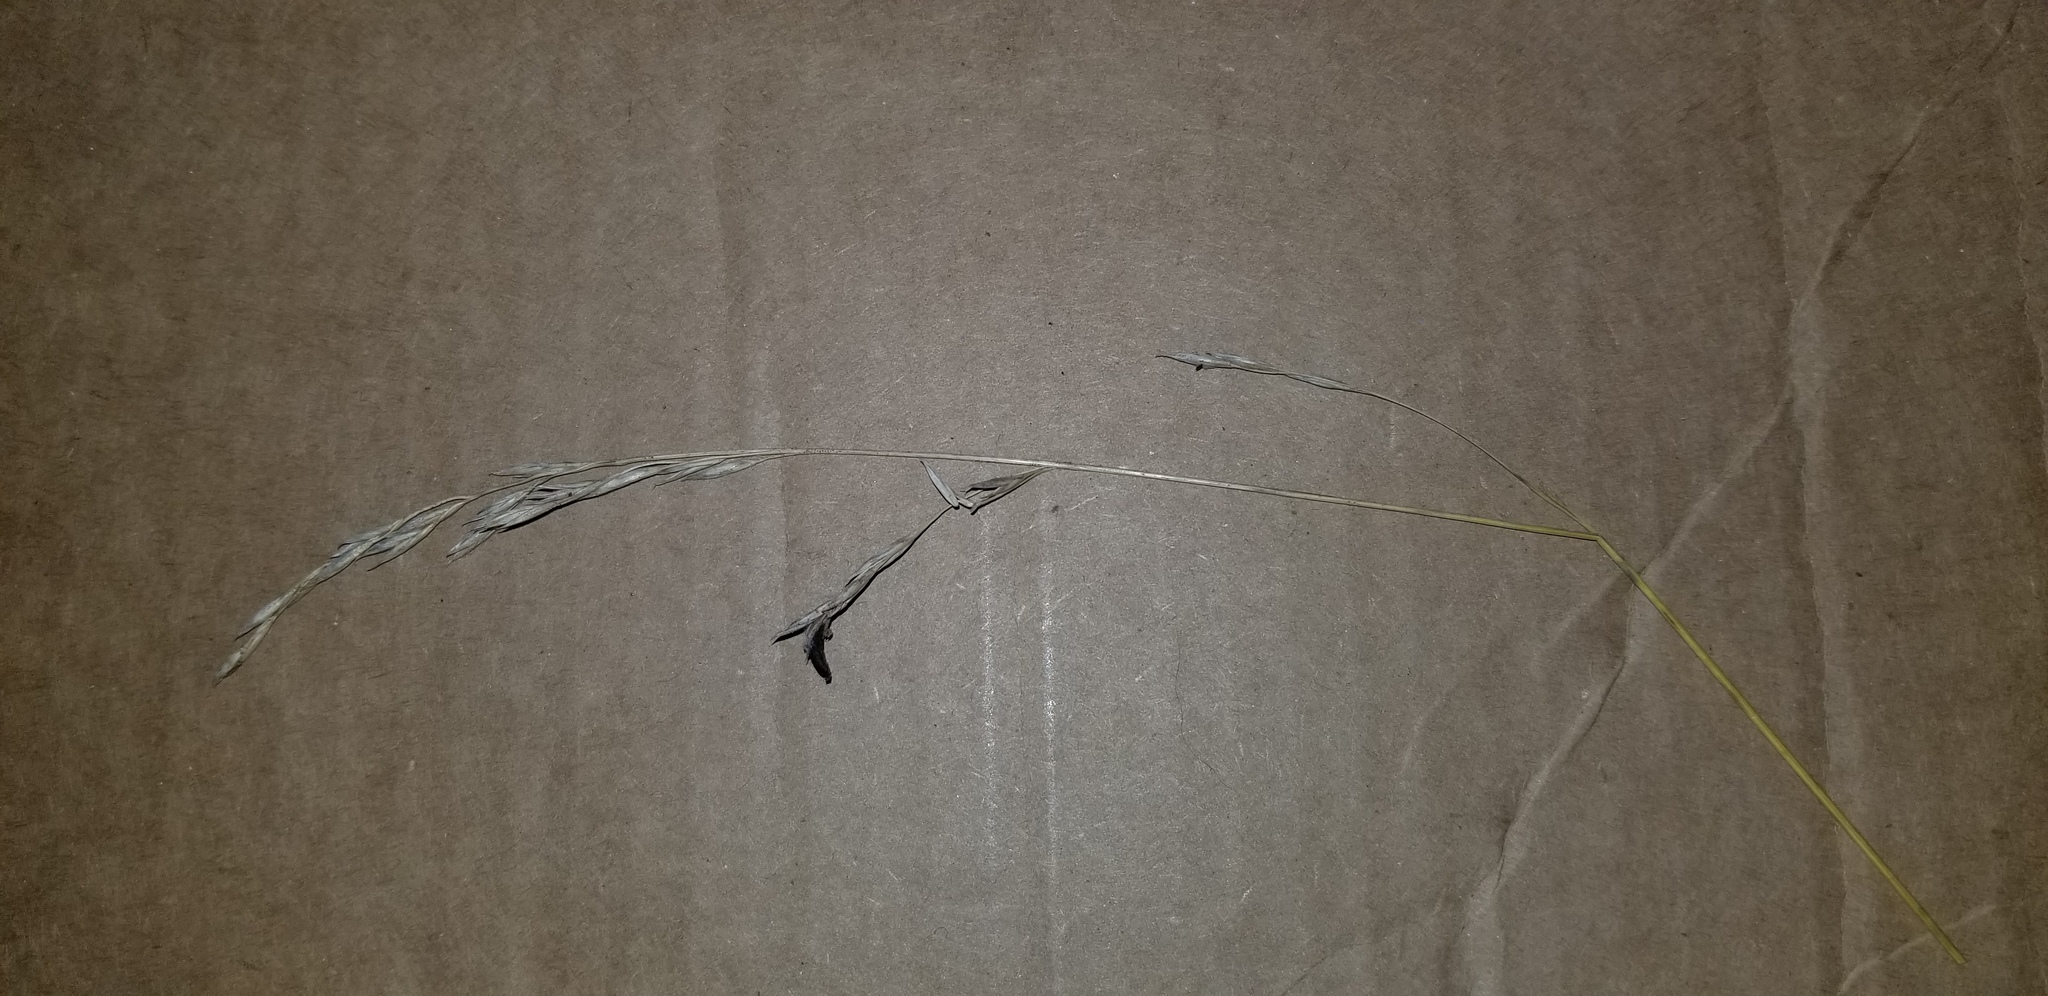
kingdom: Fungi
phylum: Ascomycota
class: Sordariomycetes
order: Hypocreales
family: Clavicipitaceae
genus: Claviceps
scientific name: Claviceps purpurea
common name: Rye ergot
